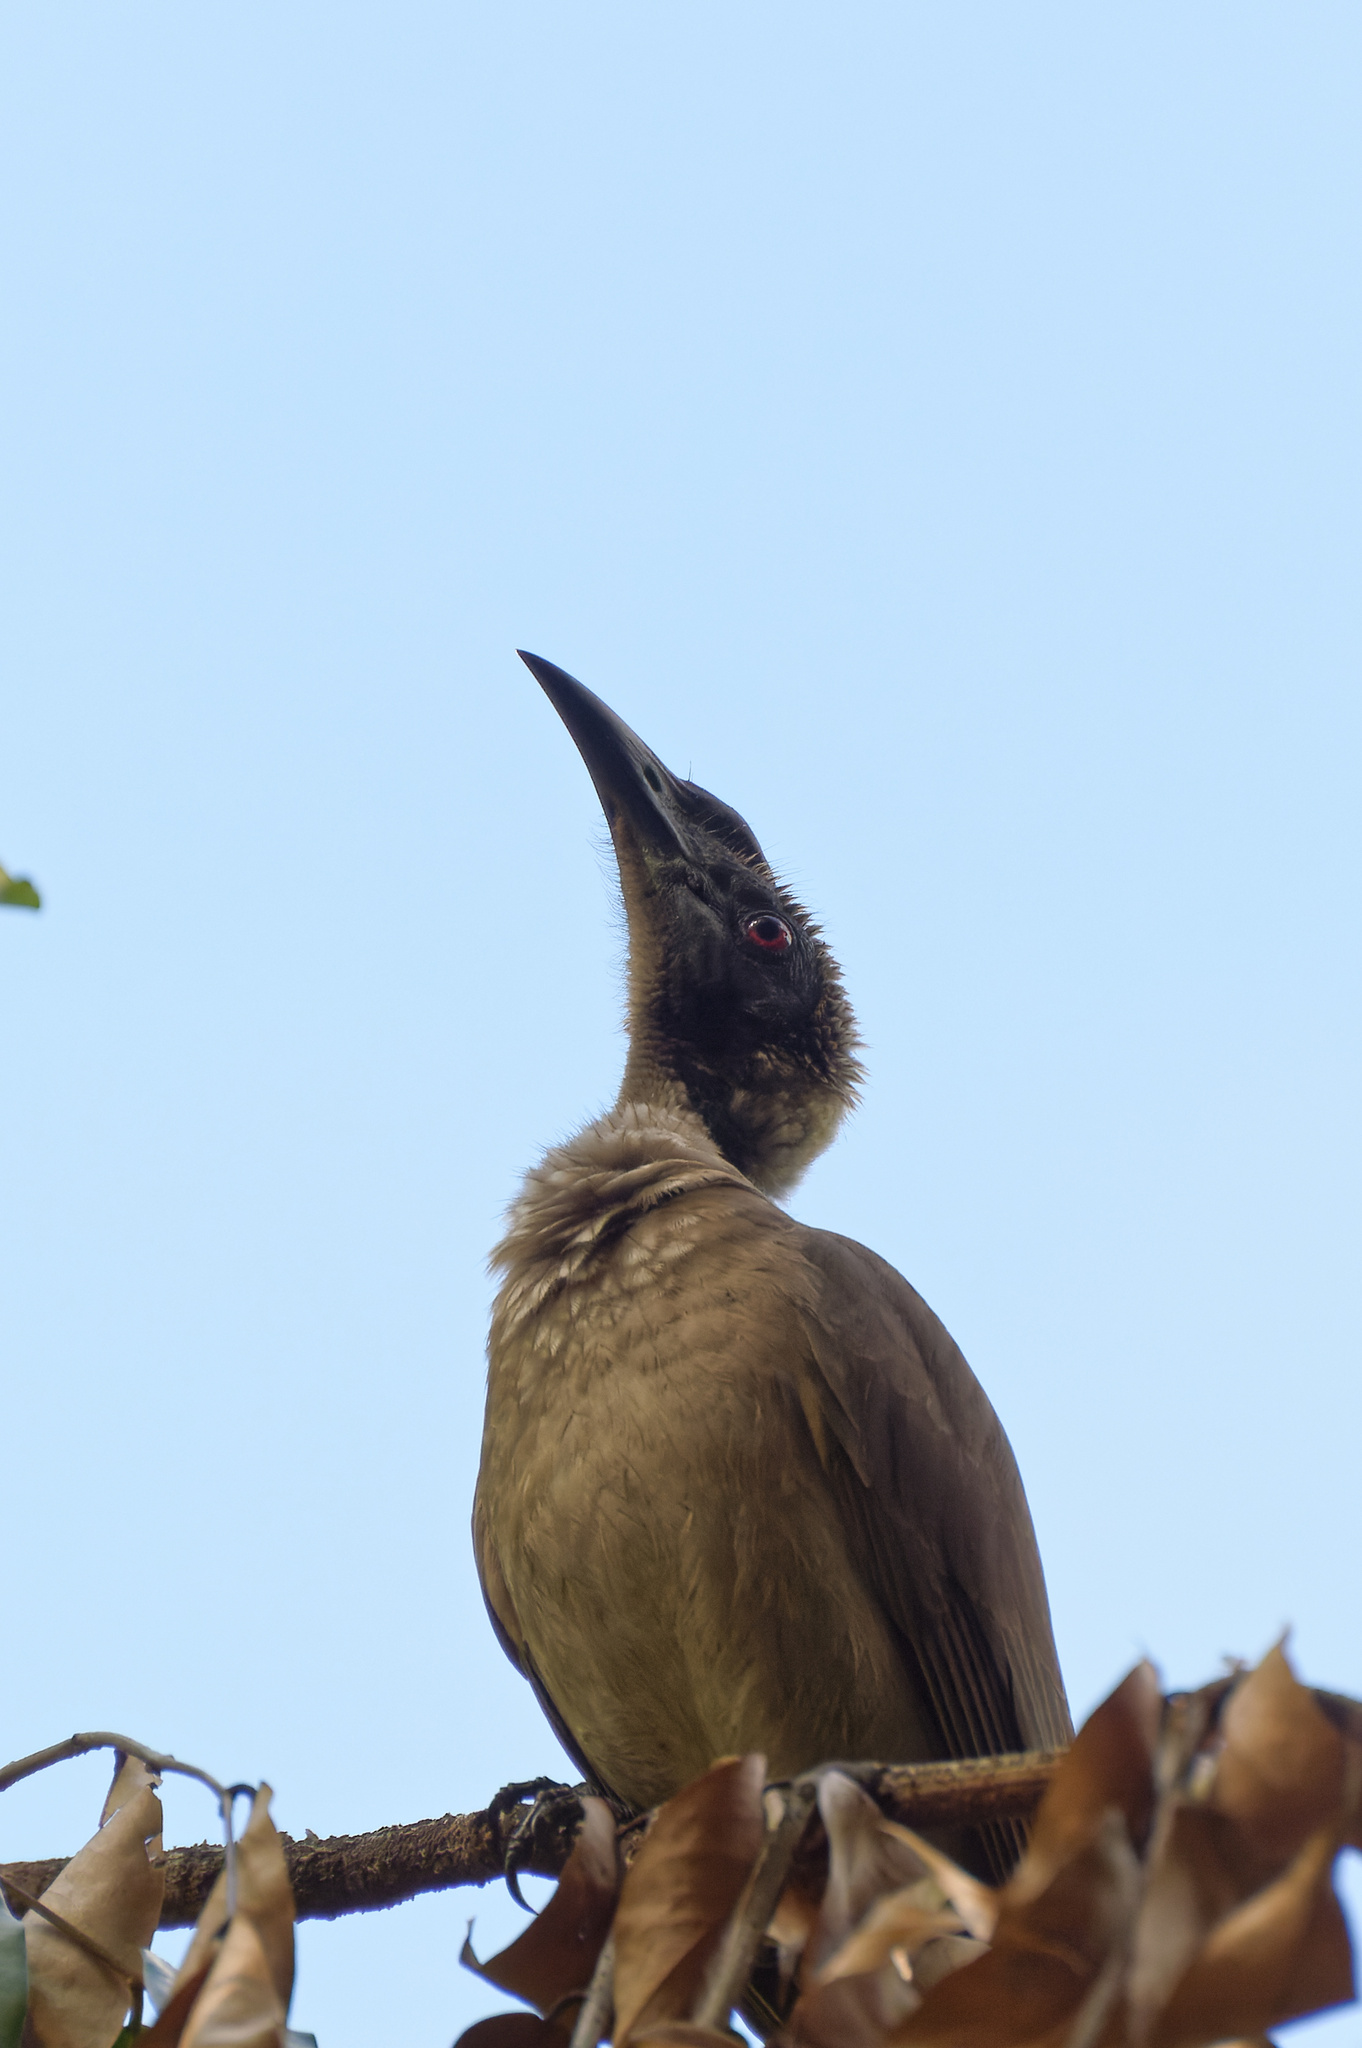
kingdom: Animalia
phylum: Chordata
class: Aves
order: Passeriformes
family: Meliphagidae
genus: Philemon
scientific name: Philemon buceroides
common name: Helmeted friarbird
